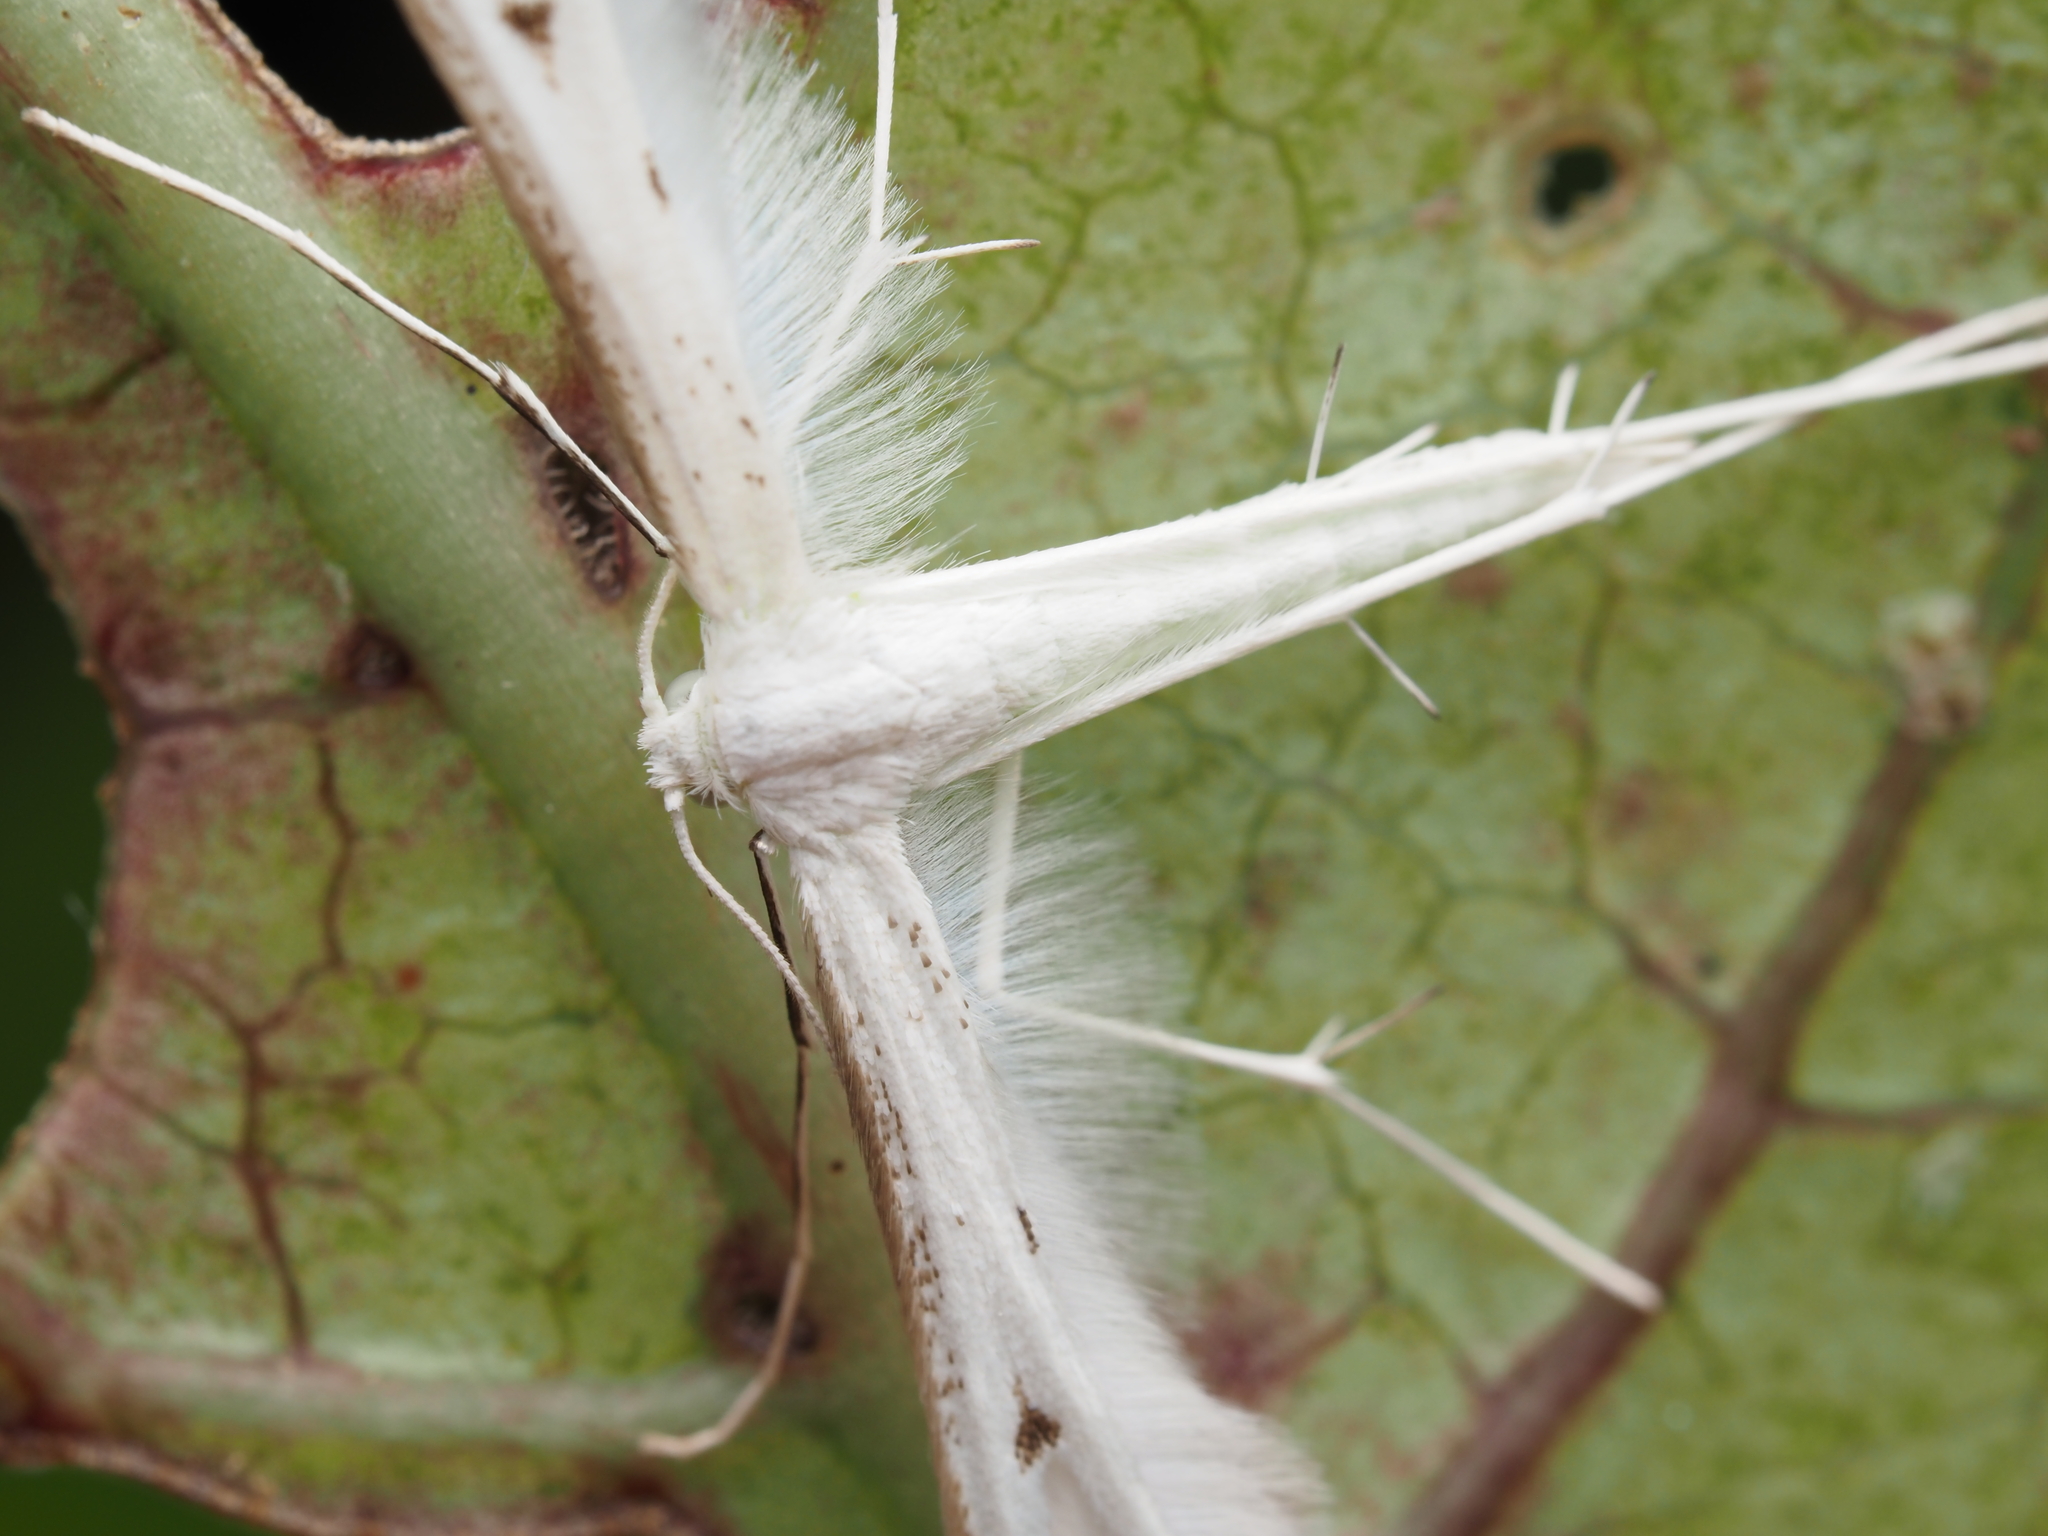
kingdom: Animalia
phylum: Arthropoda
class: Insecta
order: Lepidoptera
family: Pterophoridae
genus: Pterophorus
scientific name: Pterophorus monospilalis
